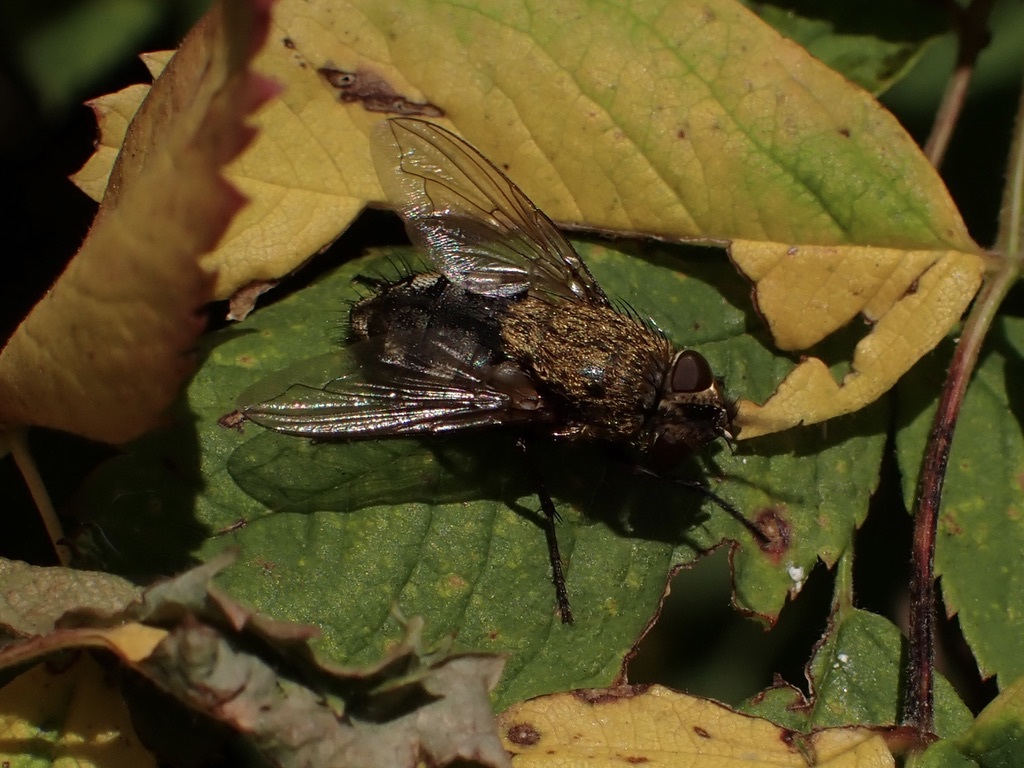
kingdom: Animalia
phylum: Arthropoda
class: Insecta
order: Diptera
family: Polleniidae
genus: Pollenia
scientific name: Pollenia
